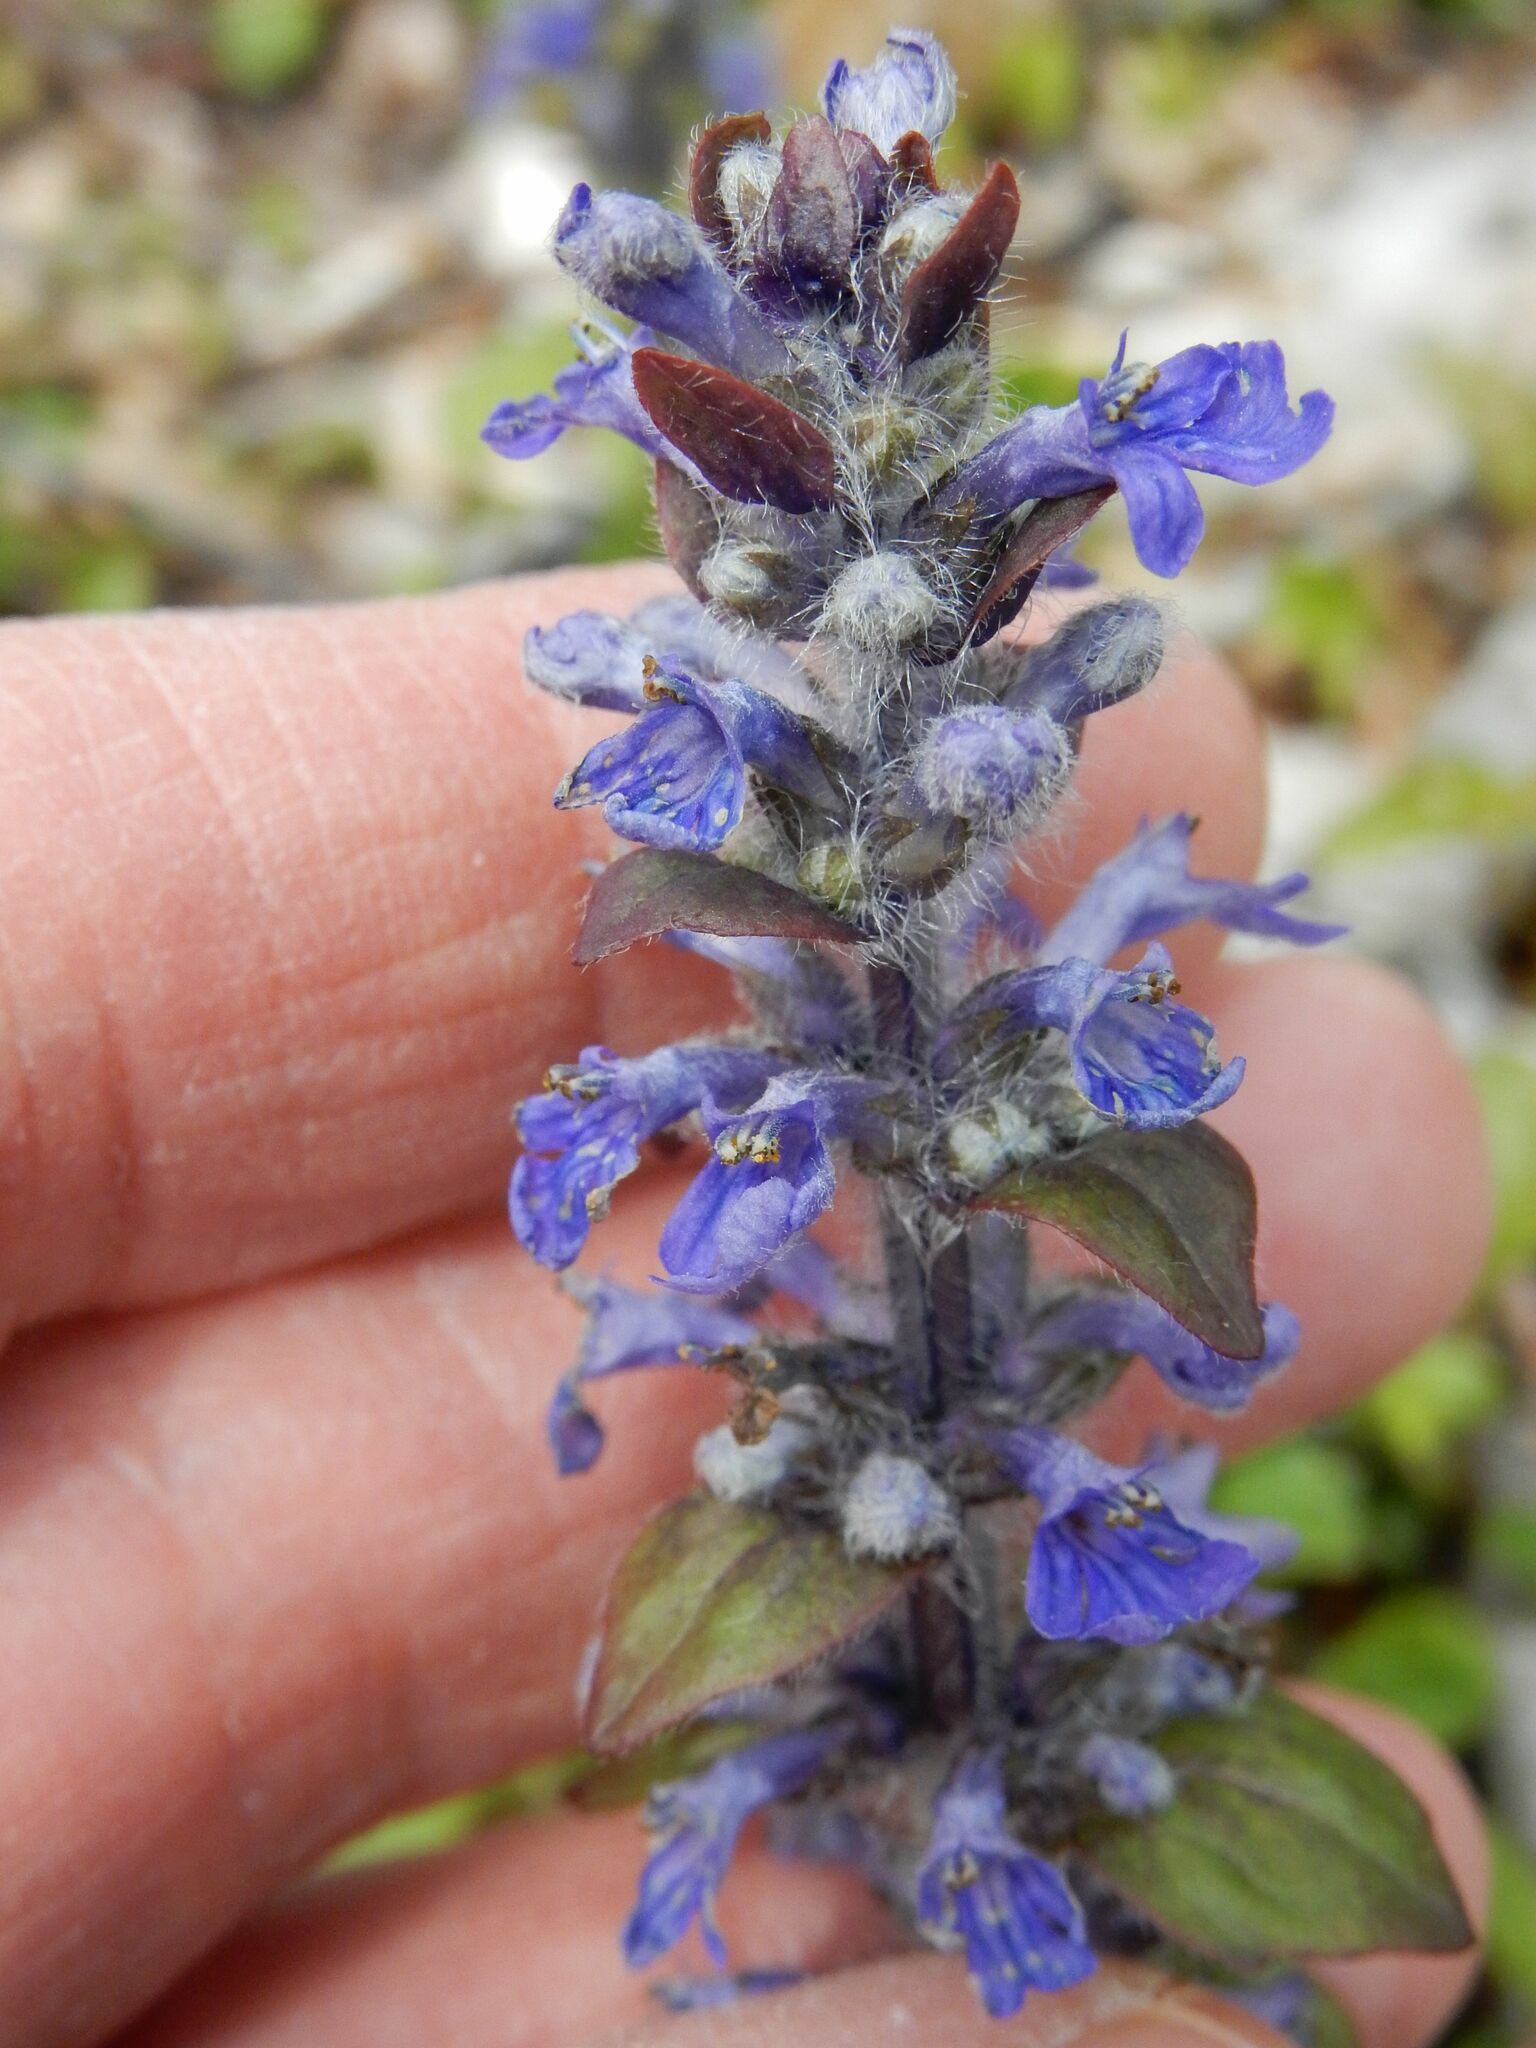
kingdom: Plantae
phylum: Tracheophyta
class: Magnoliopsida
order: Lamiales
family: Lamiaceae
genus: Ajuga
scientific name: Ajuga reptans
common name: Bugle
